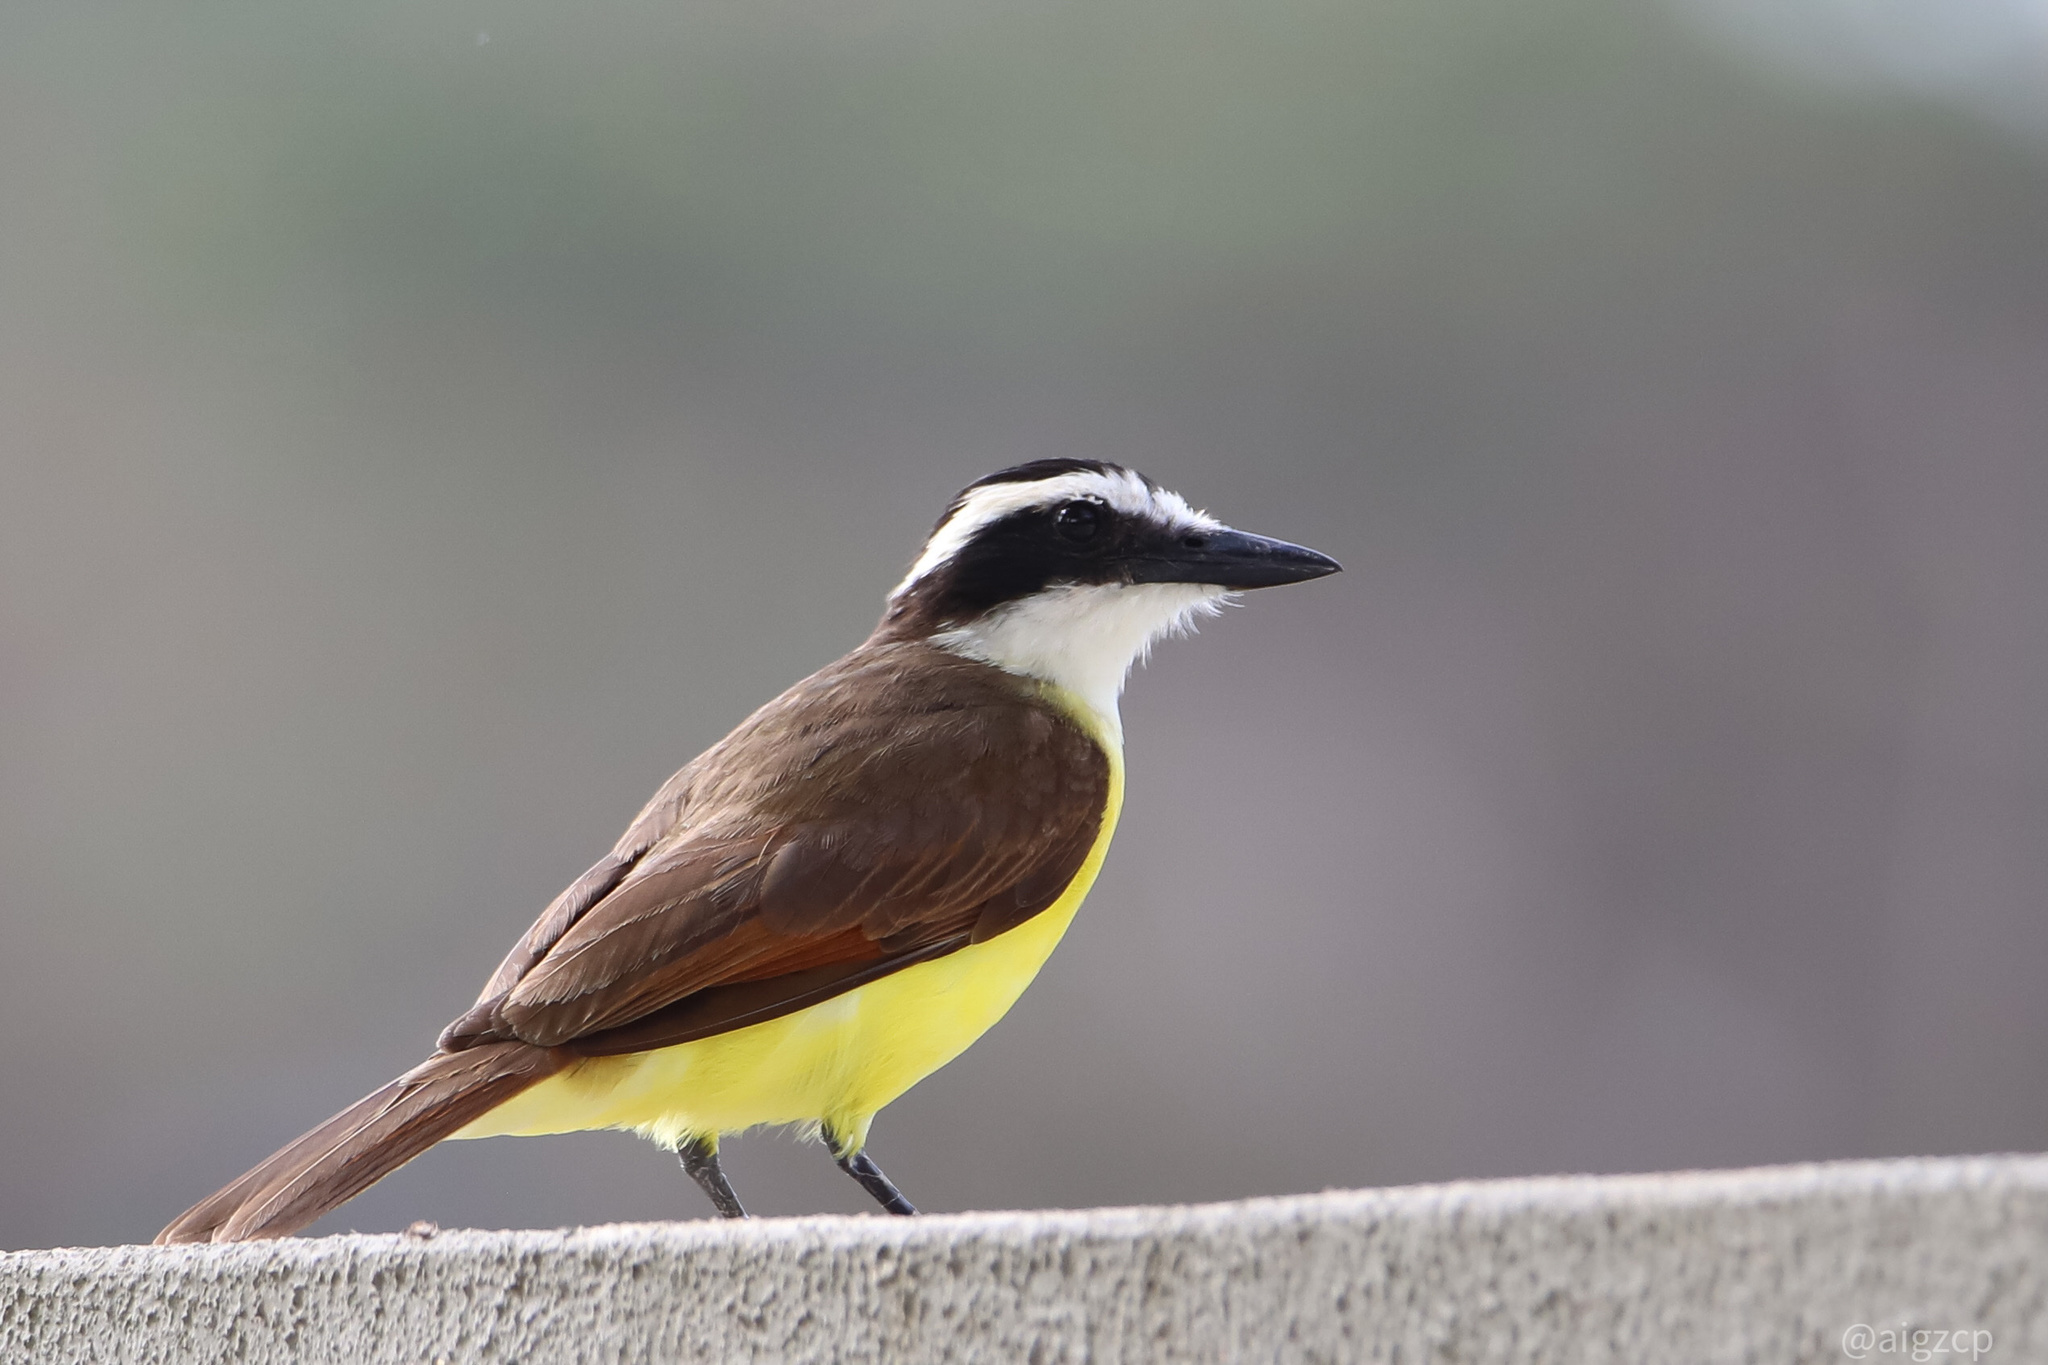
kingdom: Animalia
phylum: Chordata
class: Aves
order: Passeriformes
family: Tyrannidae
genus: Pitangus
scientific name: Pitangus sulphuratus
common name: Great kiskadee
